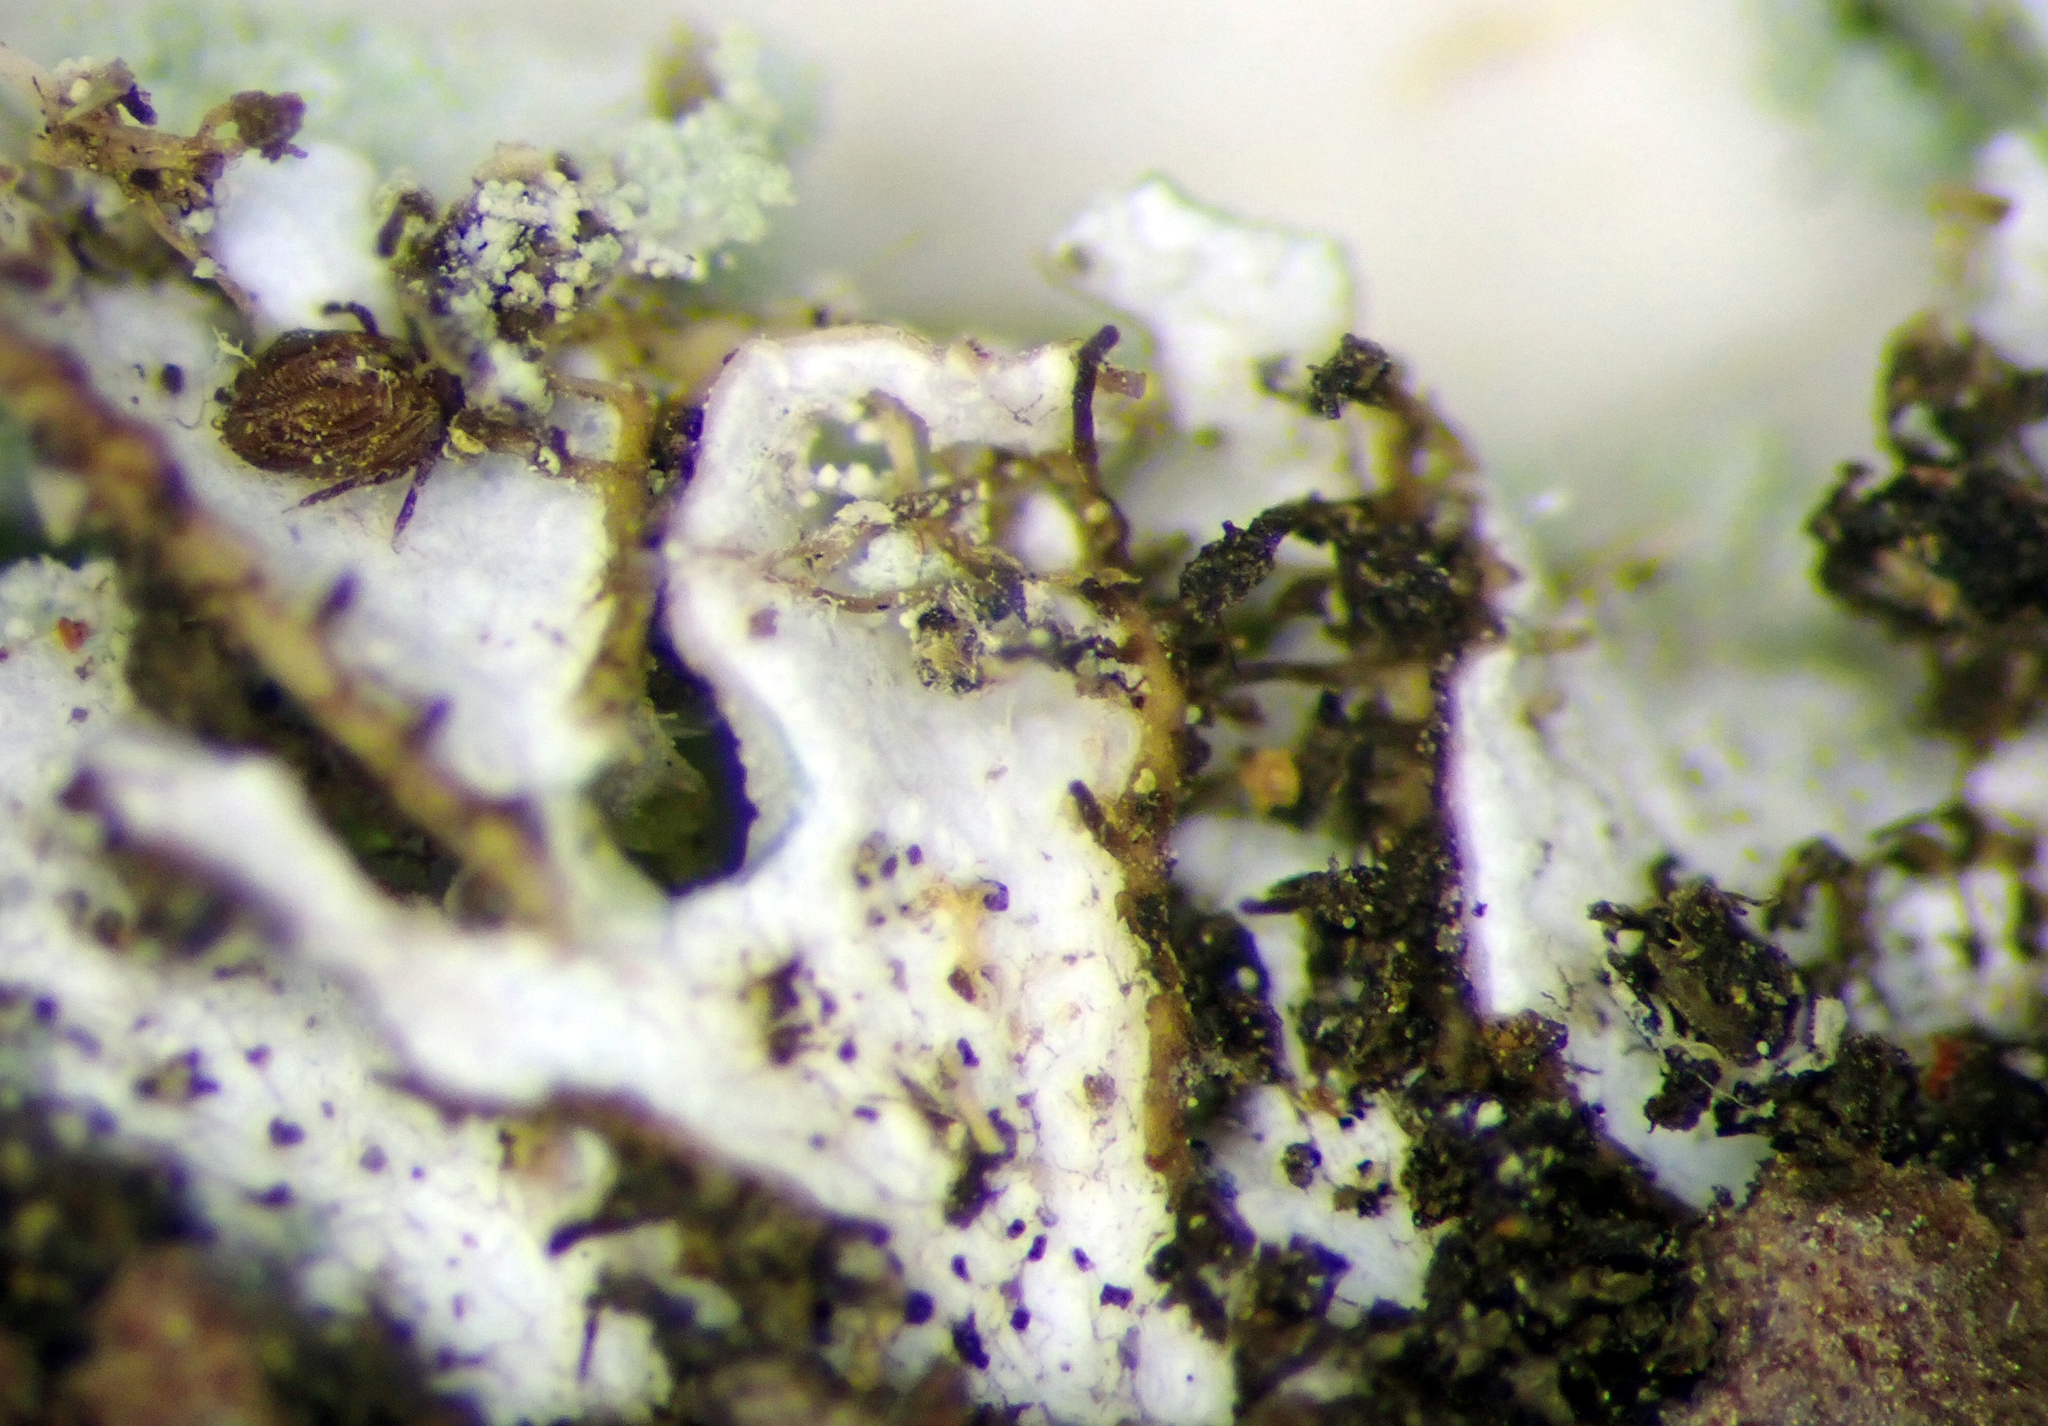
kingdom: Fungi
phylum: Ascomycota
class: Lecanoromycetes
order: Caliciales
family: Physciaceae
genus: Heterodermia
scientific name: Heterodermia spathulifera
